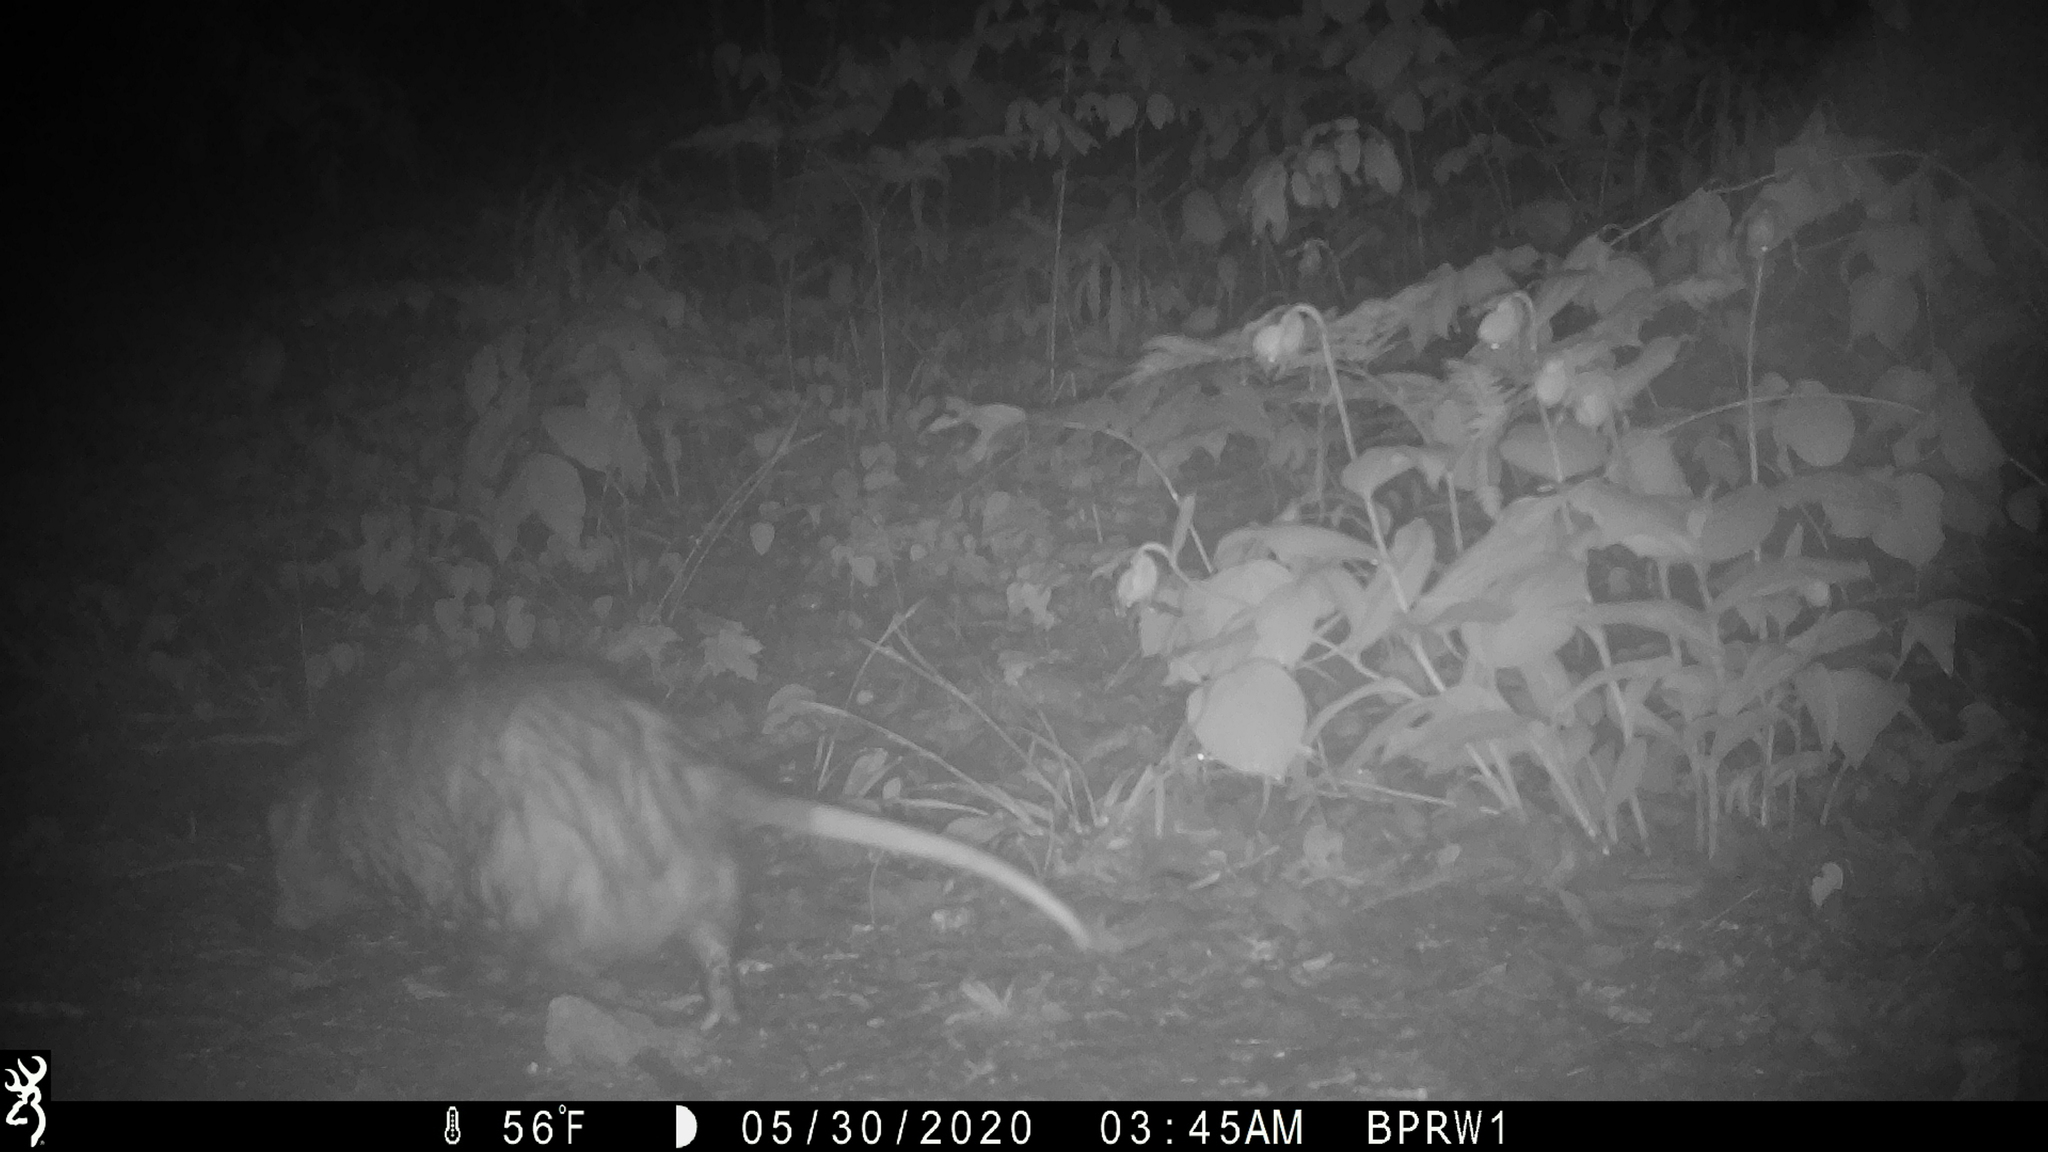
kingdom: Animalia
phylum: Chordata
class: Mammalia
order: Didelphimorphia
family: Didelphidae
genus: Didelphis
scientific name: Didelphis virginiana
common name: Virginia opossum
